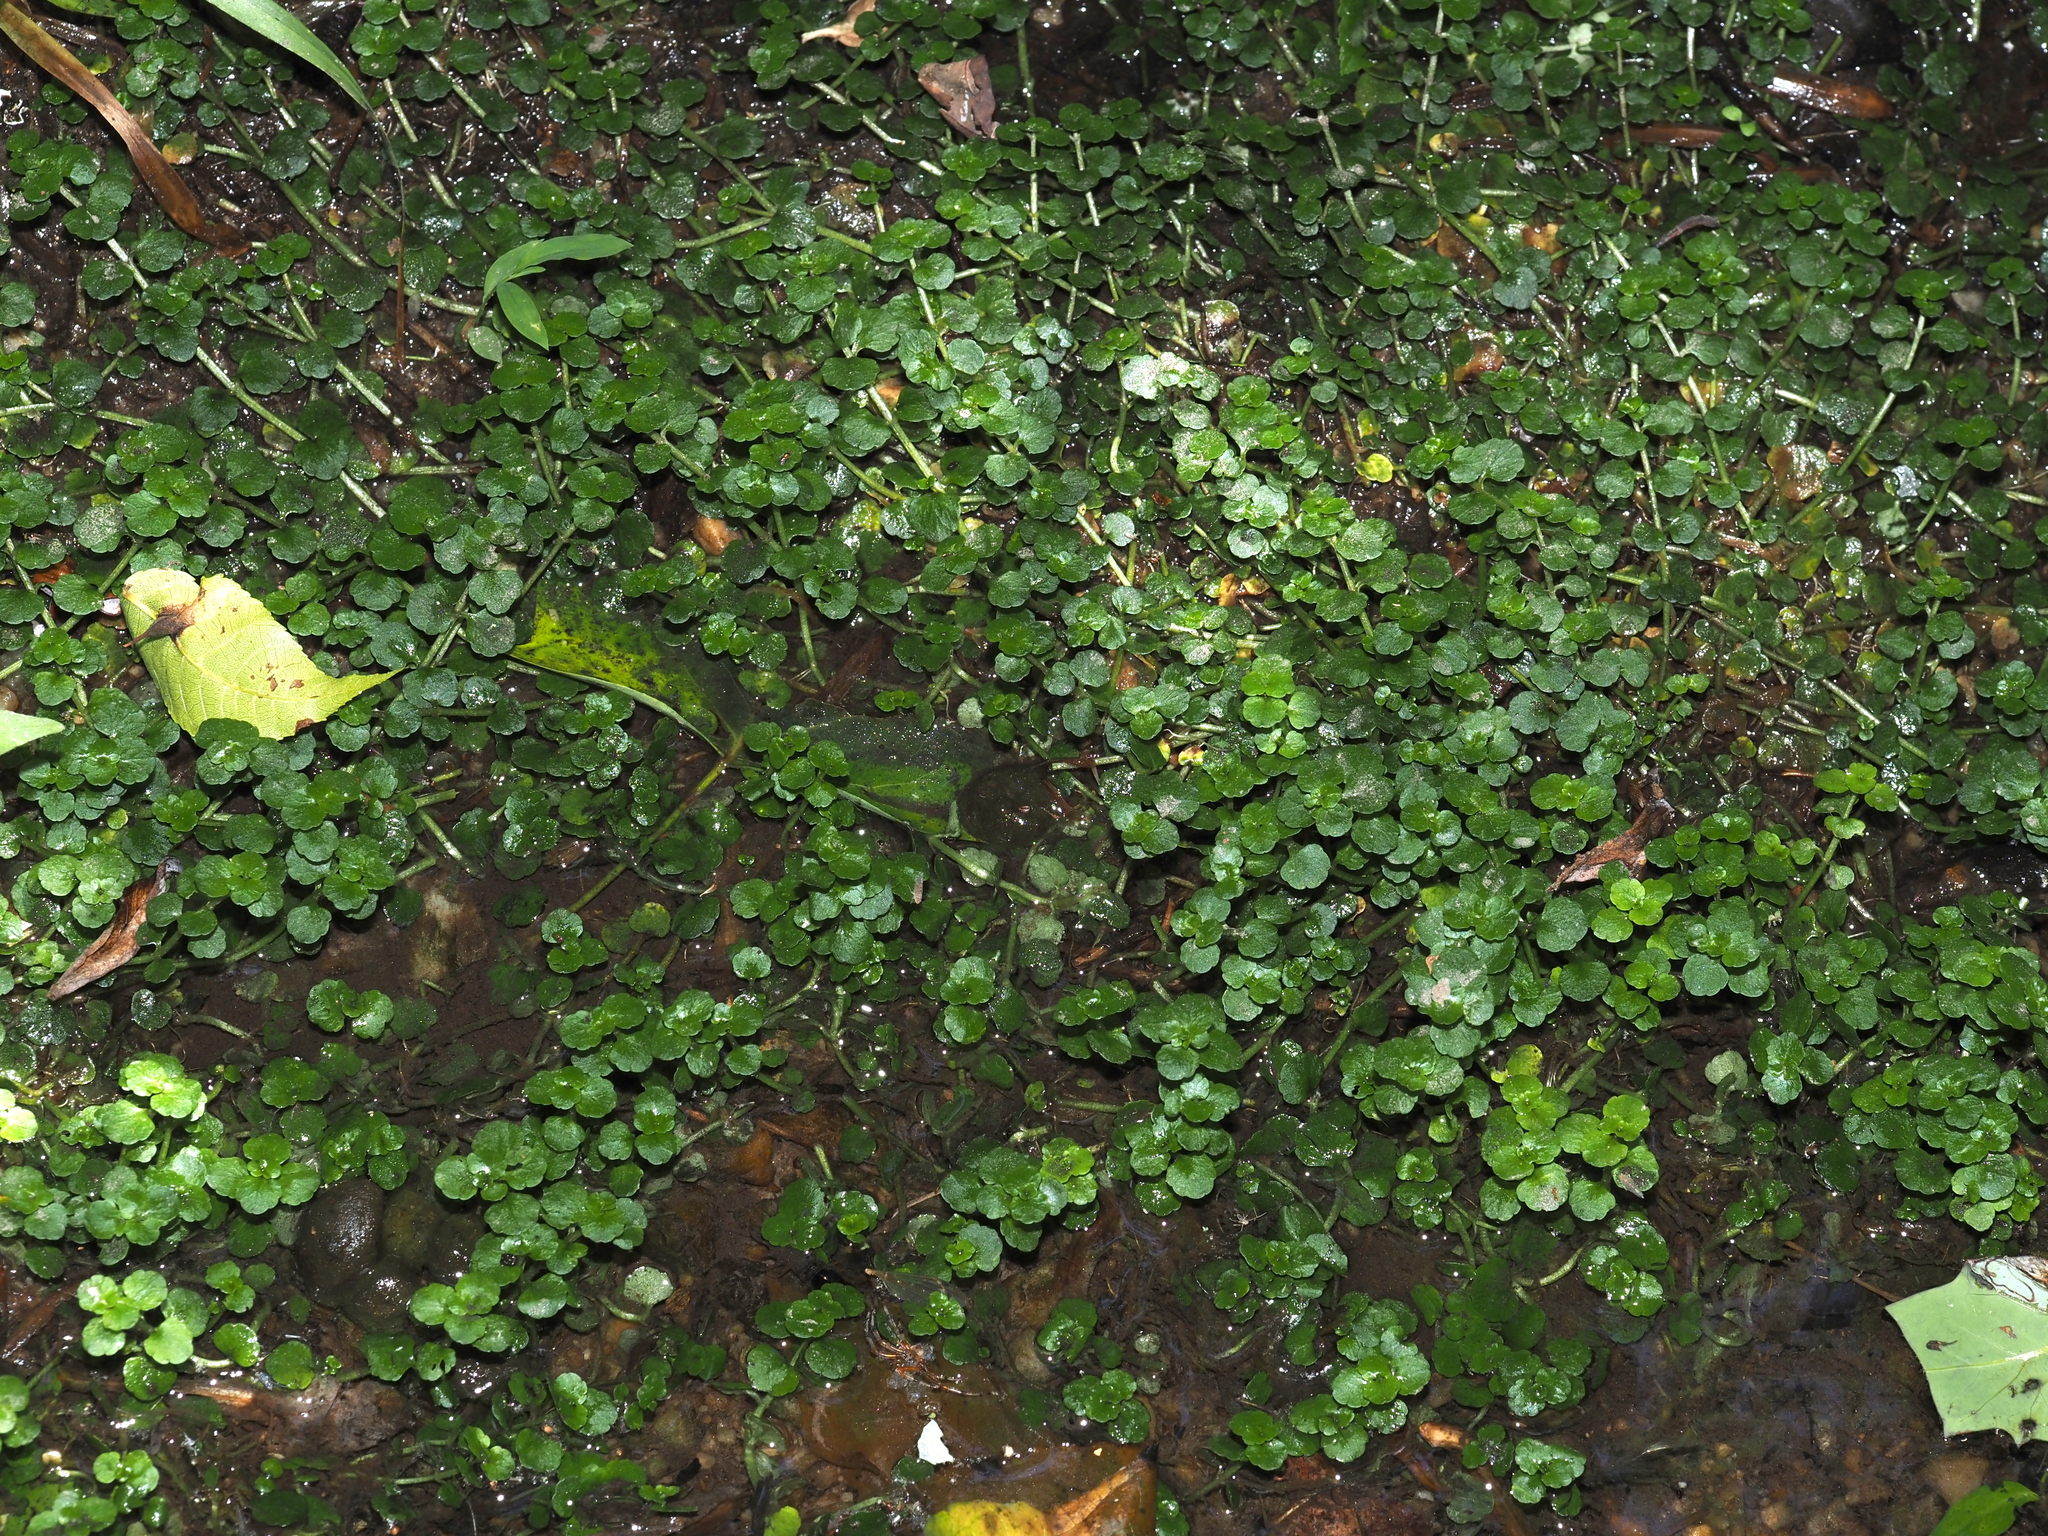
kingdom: Plantae
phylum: Tracheophyta
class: Magnoliopsida
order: Saxifragales
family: Saxifragaceae
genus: Chrysosplenium
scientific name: Chrysosplenium americanum
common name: American golden-saxifrage
